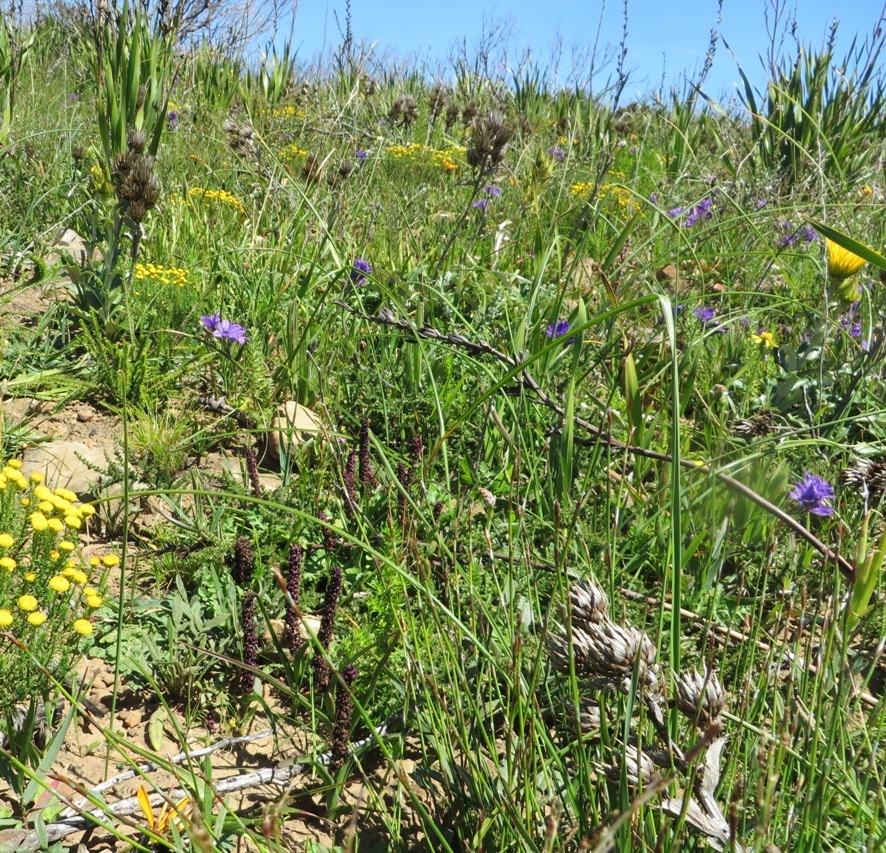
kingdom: Plantae
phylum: Tracheophyta
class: Liliopsida
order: Liliales
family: Colchicaceae
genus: Wurmbea
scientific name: Wurmbea recurva
